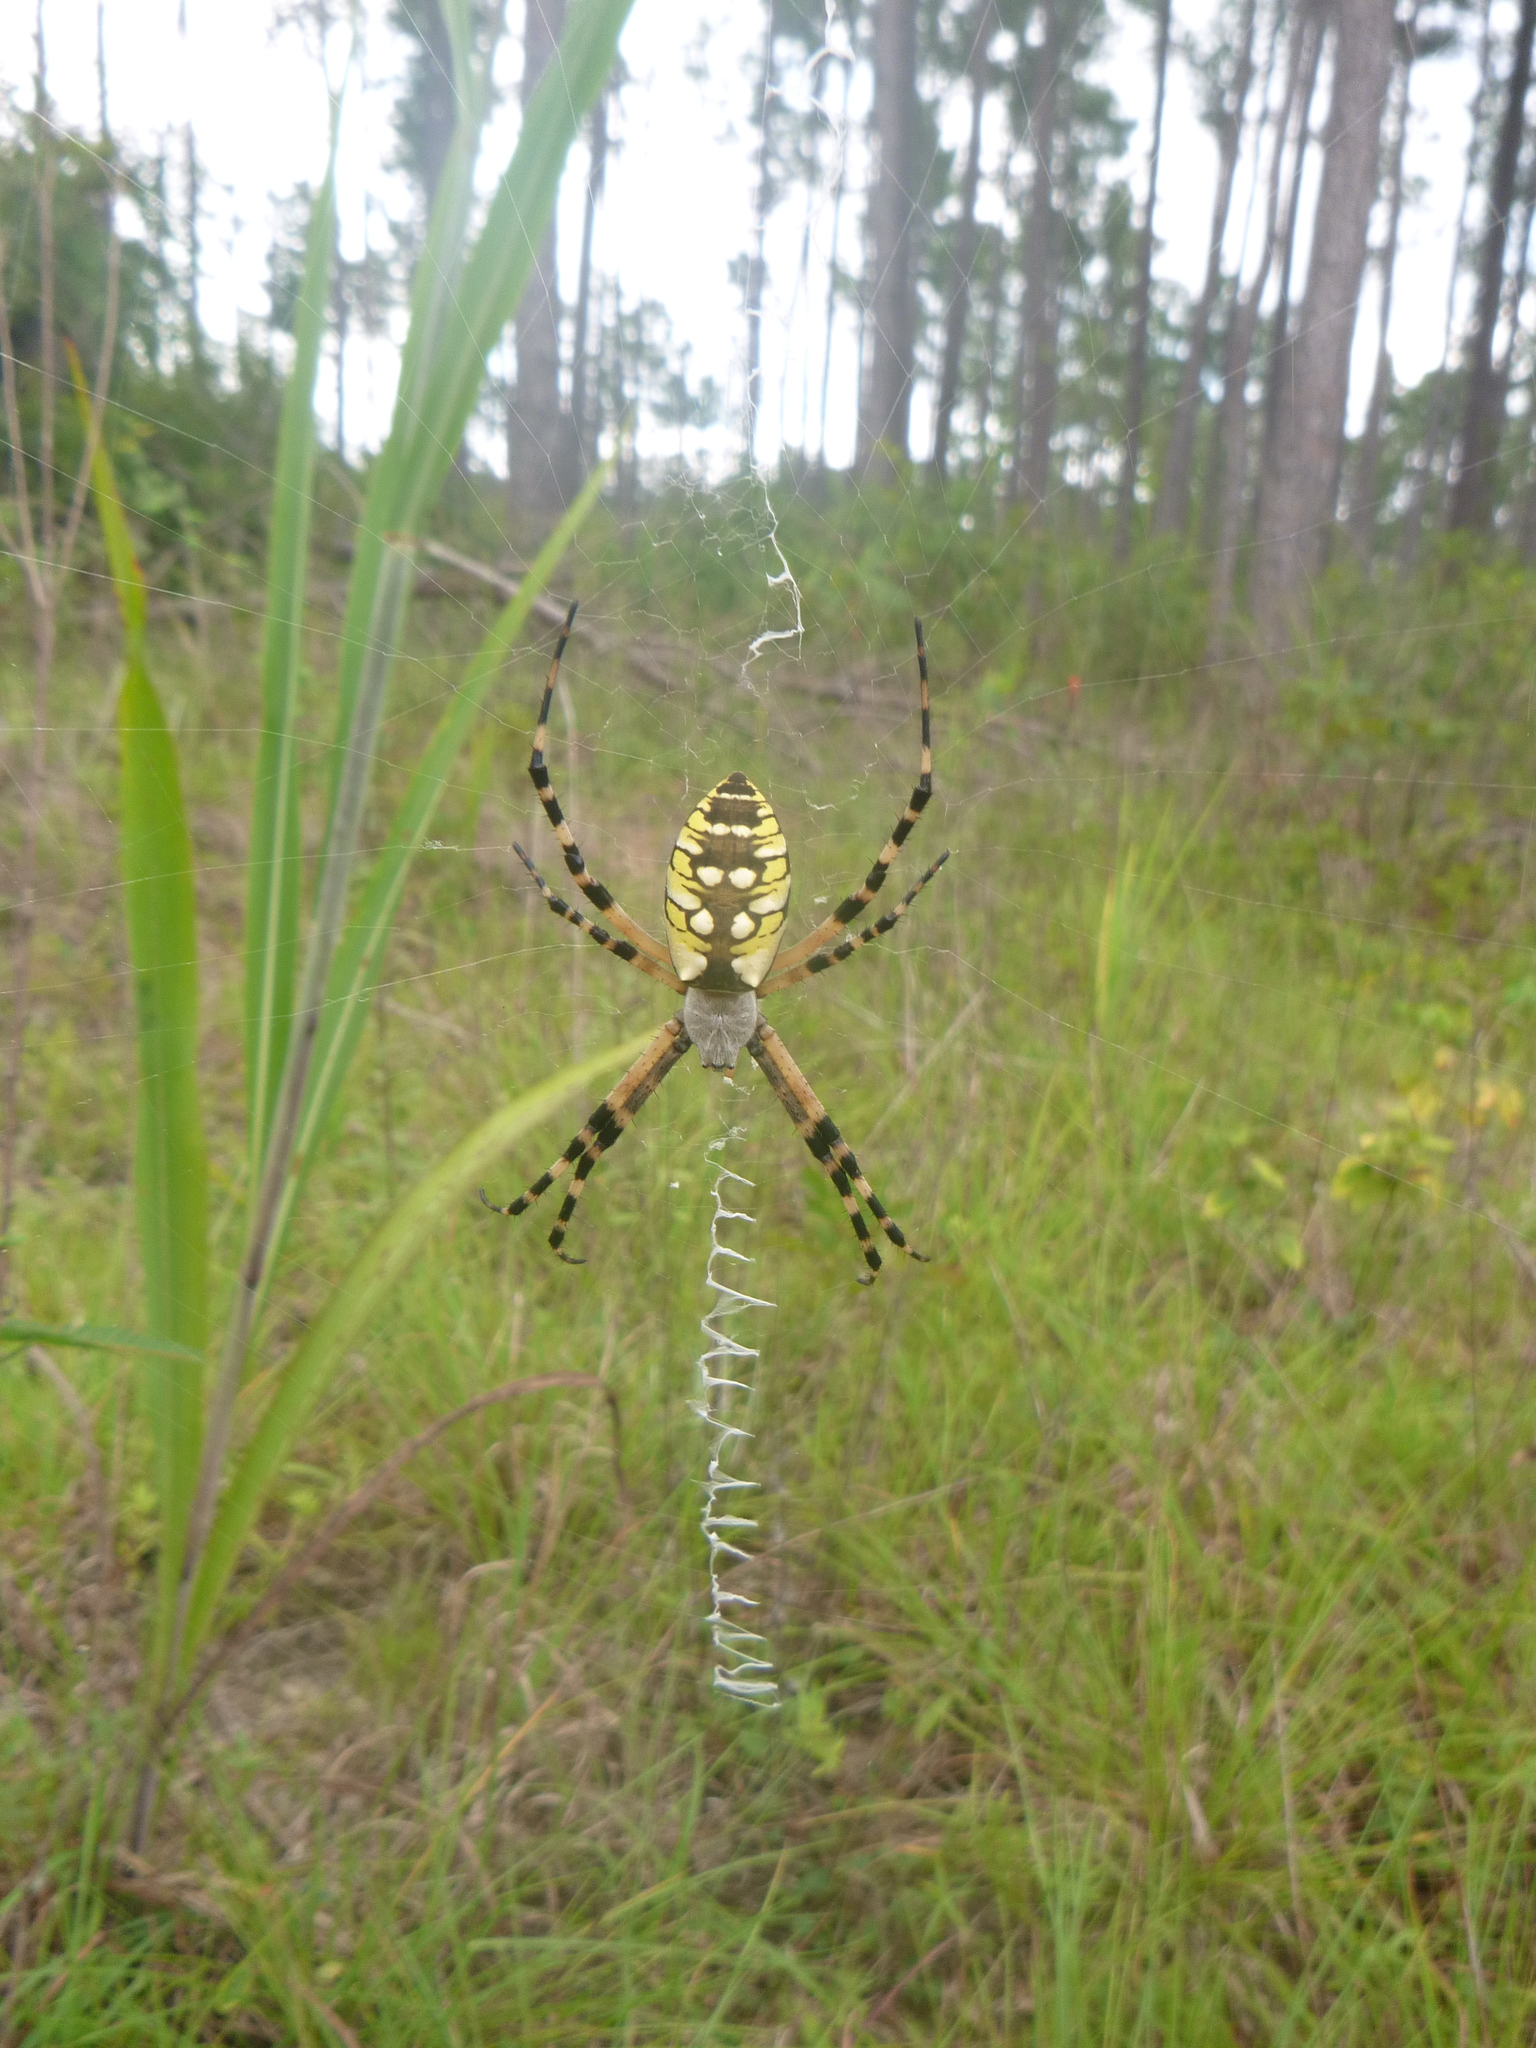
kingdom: Animalia
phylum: Arthropoda
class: Arachnida
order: Araneae
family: Araneidae
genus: Argiope
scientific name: Argiope aurantia
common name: Orb weavers
